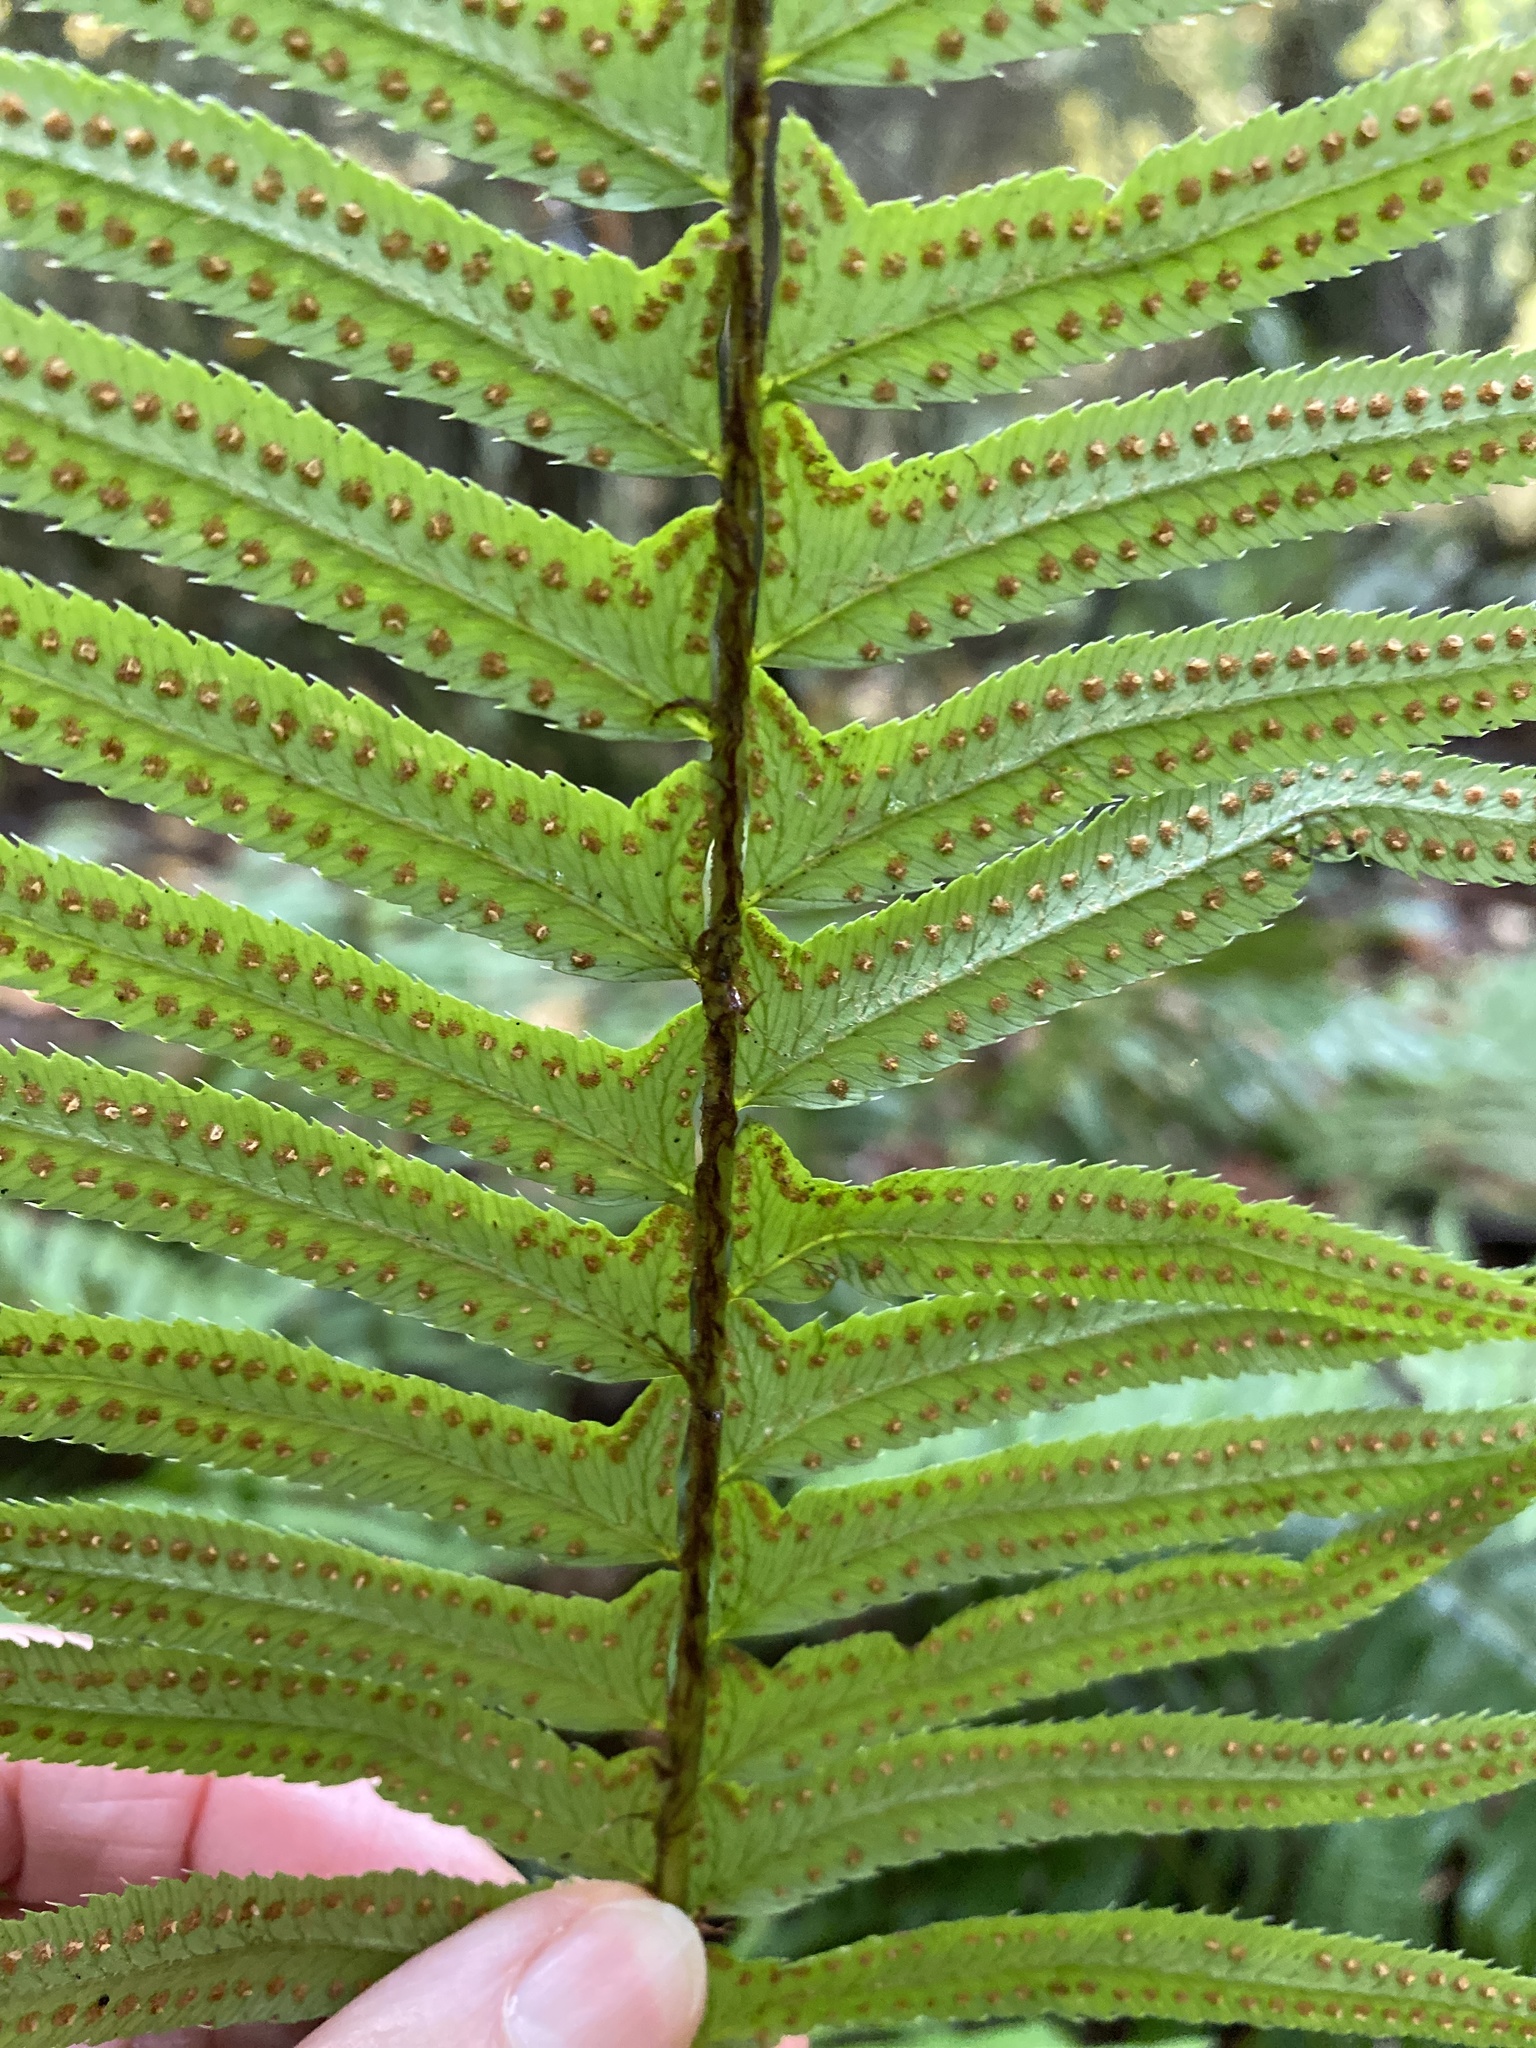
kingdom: Plantae
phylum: Tracheophyta
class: Polypodiopsida
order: Polypodiales
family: Dryopteridaceae
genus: Polystichum
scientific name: Polystichum munitum
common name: Western sword-fern
